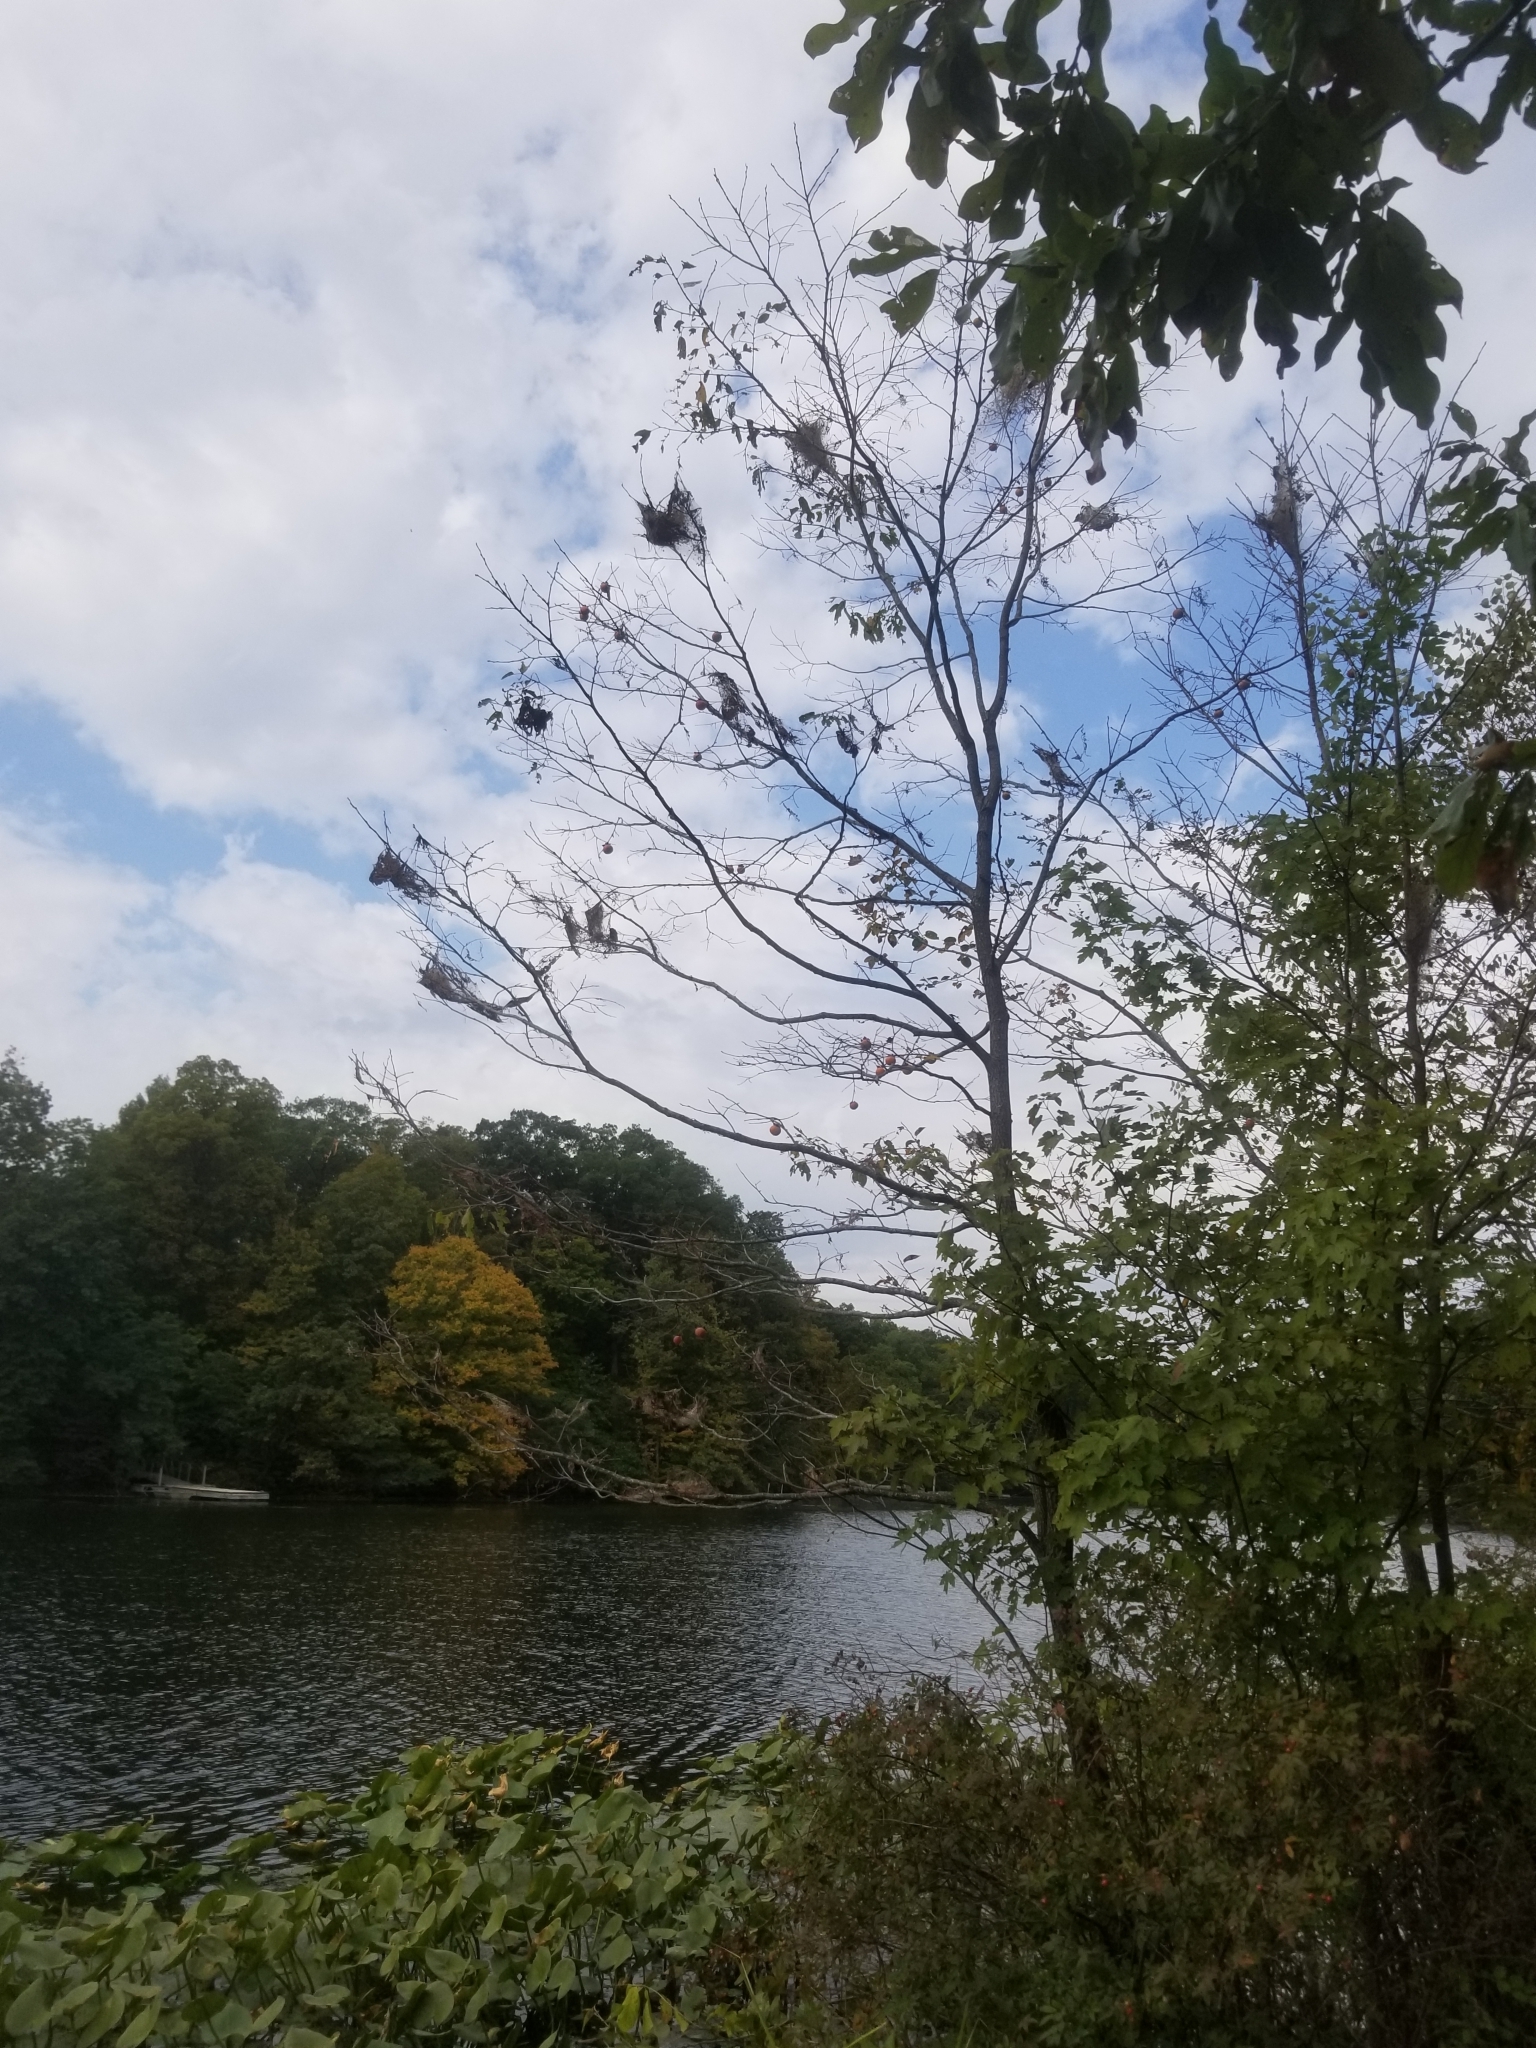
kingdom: Plantae
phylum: Tracheophyta
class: Magnoliopsida
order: Ericales
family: Ebenaceae
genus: Diospyros
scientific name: Diospyros virginiana
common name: Persimmon
